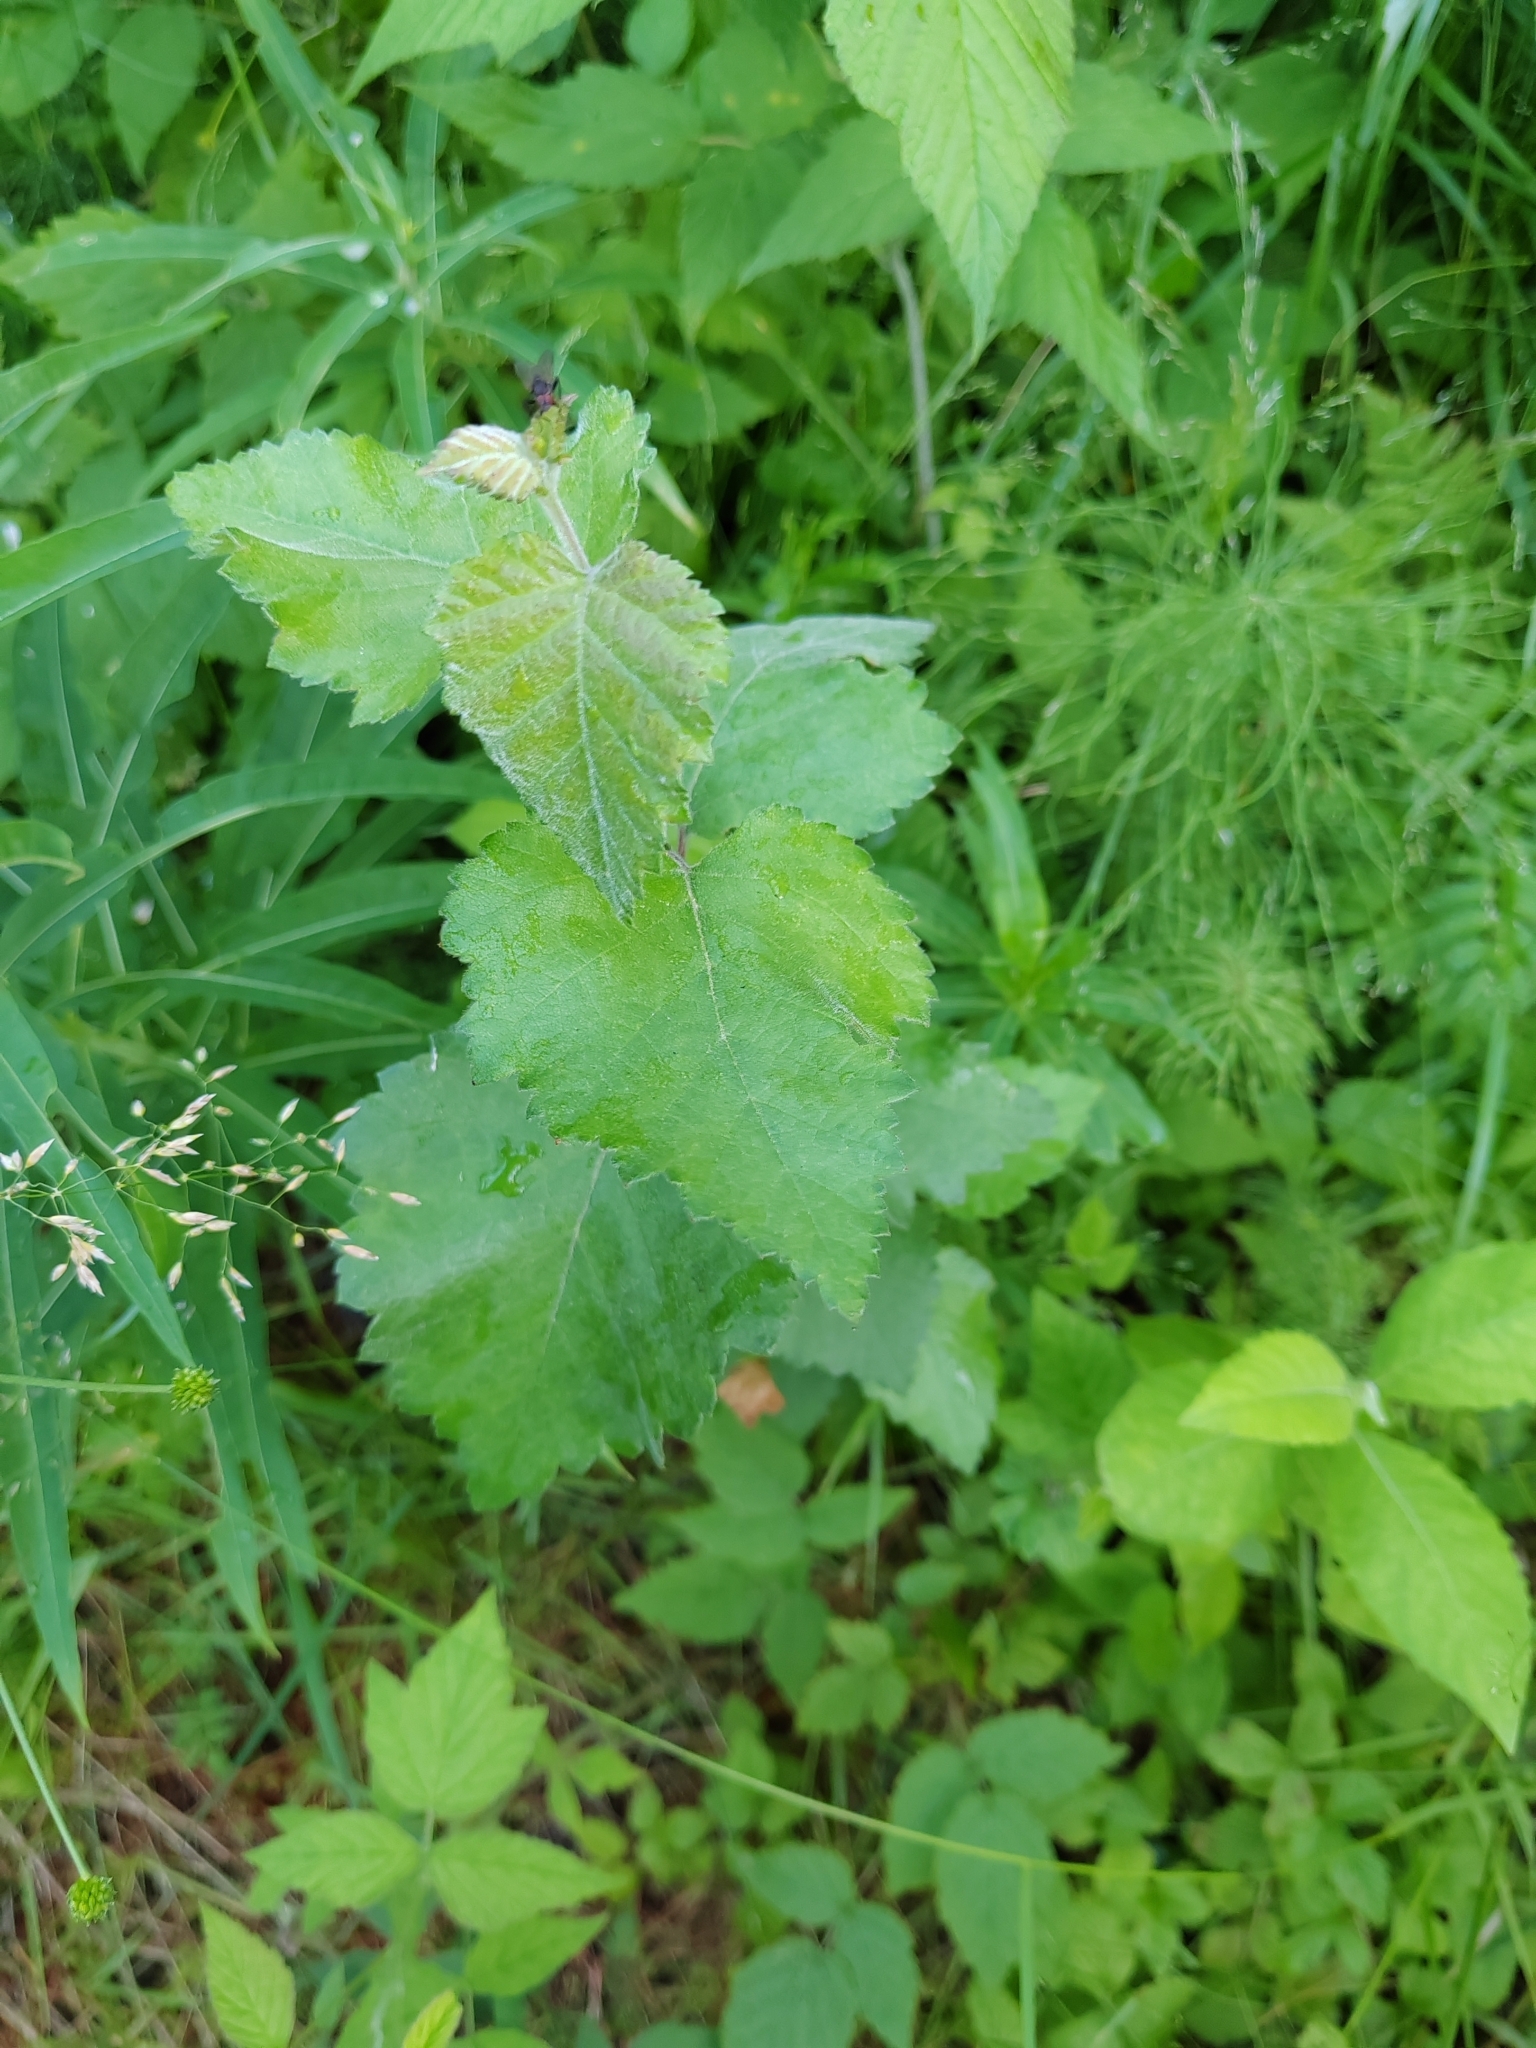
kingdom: Plantae
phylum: Tracheophyta
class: Magnoliopsida
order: Fagales
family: Betulaceae
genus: Betula
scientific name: Betula pubescens
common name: Downy birch
